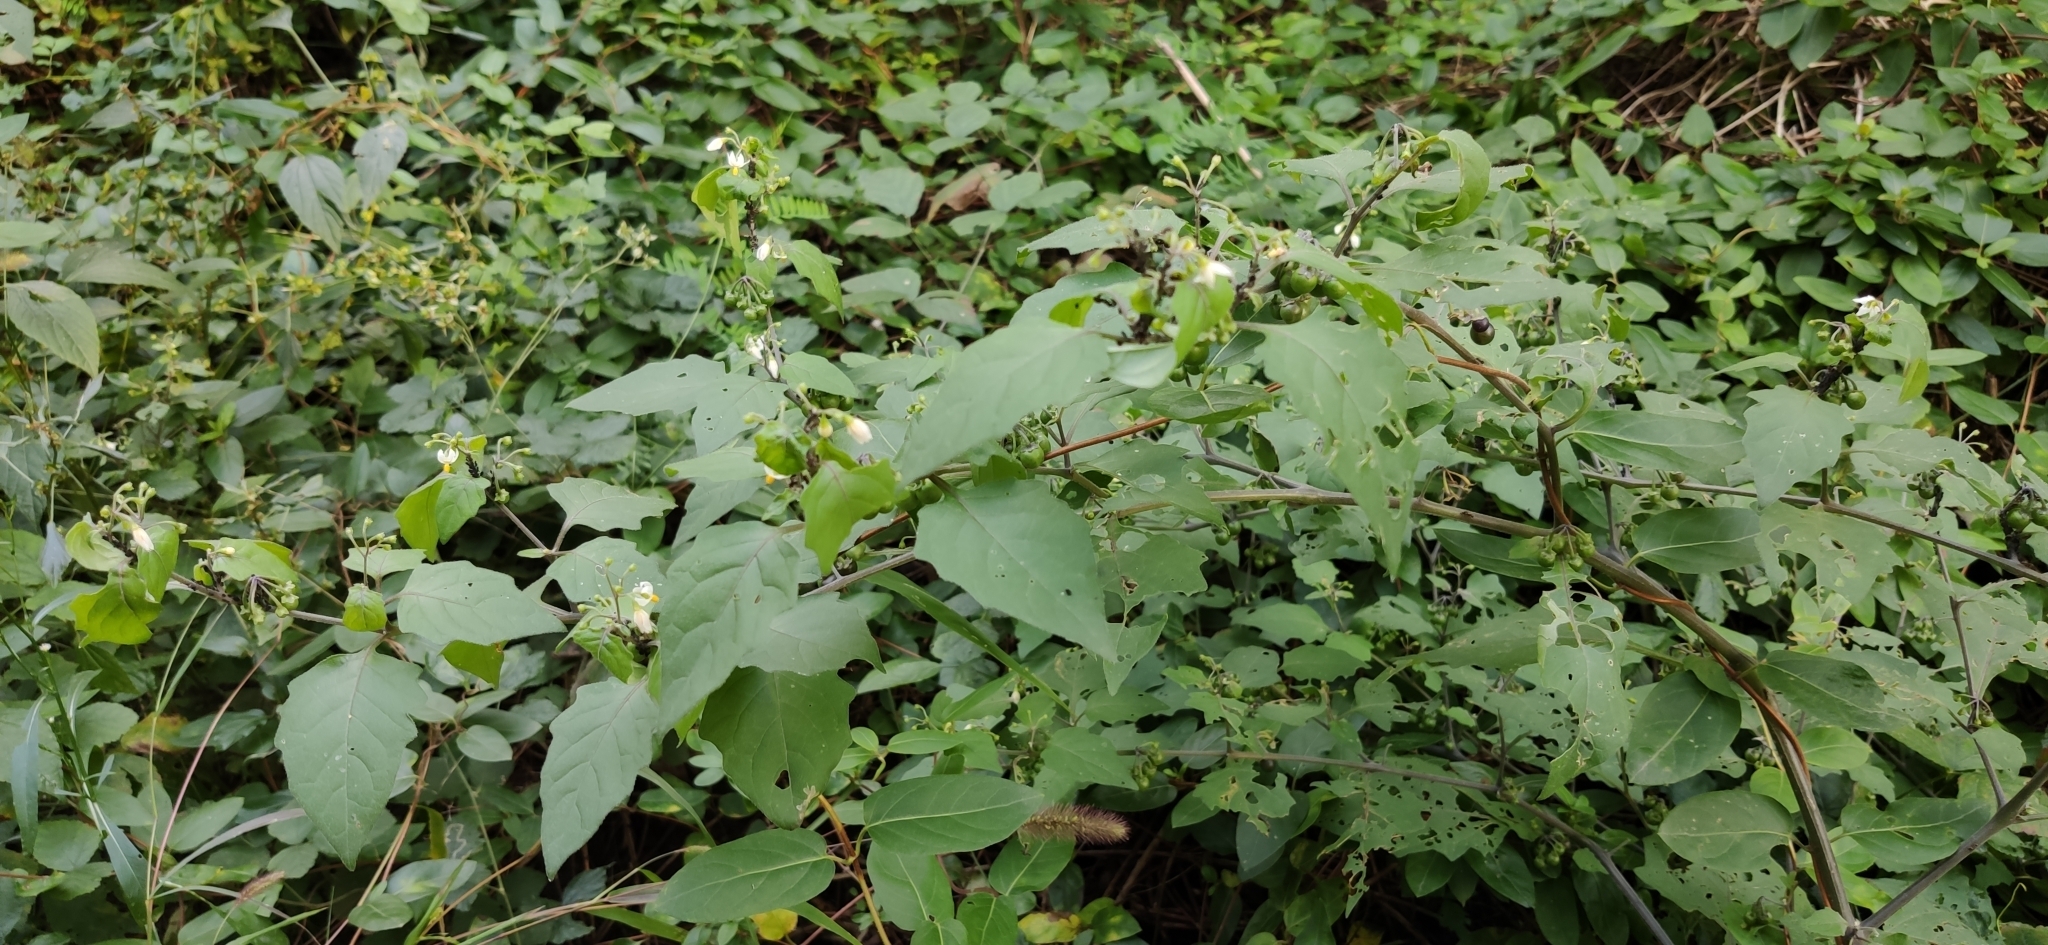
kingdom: Plantae
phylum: Tracheophyta
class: Magnoliopsida
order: Solanales
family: Solanaceae
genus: Solanum
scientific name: Solanum nigrum
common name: Black nightshade
